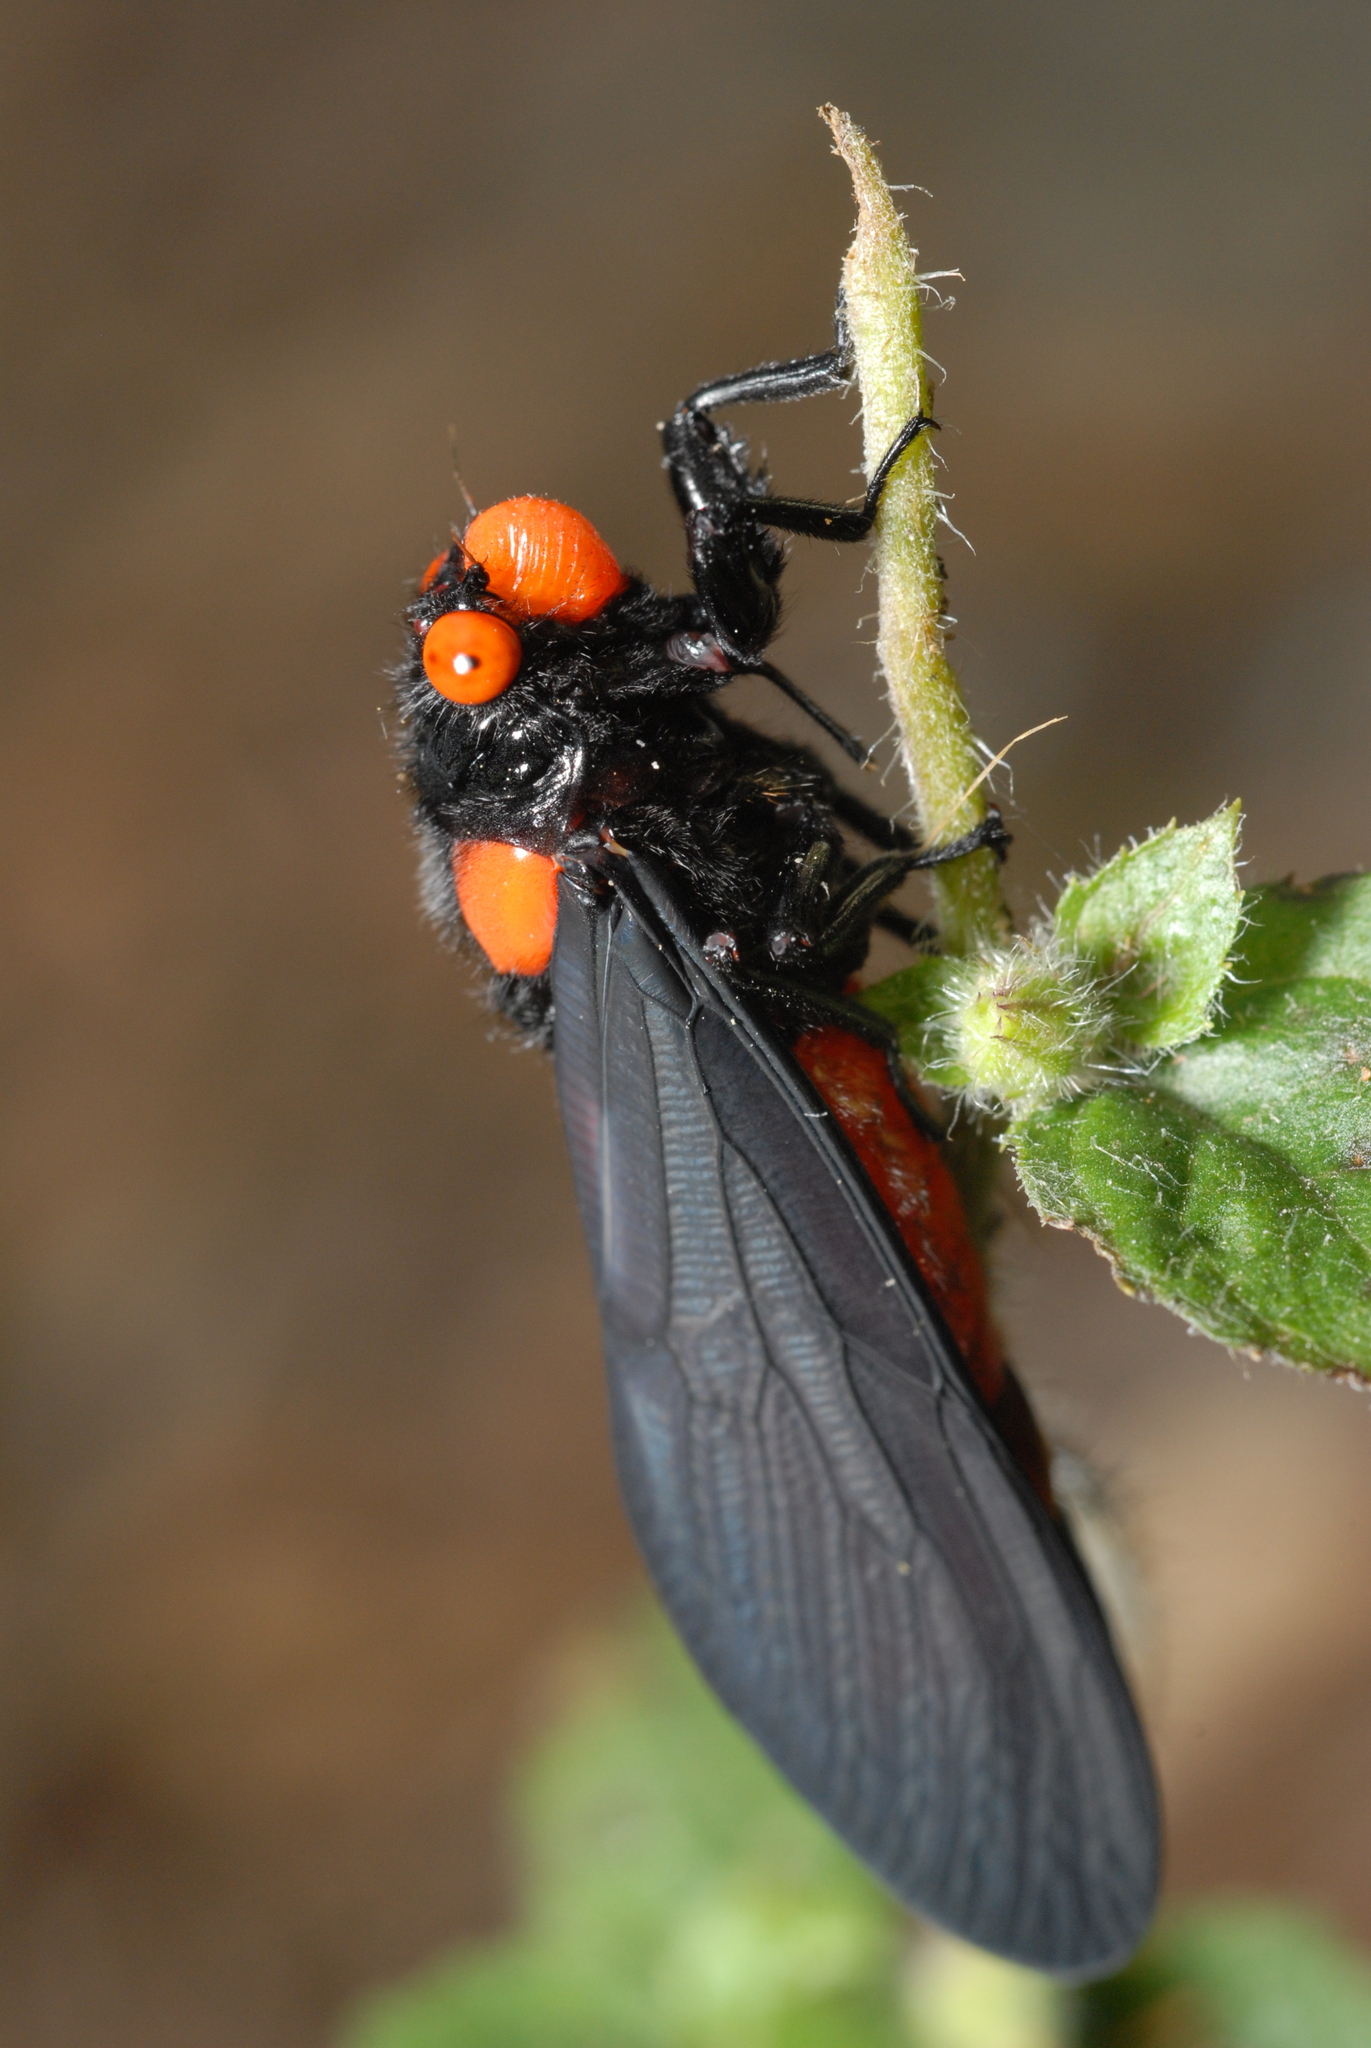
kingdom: Animalia
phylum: Arthropoda
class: Insecta
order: Hemiptera
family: Cicadidae
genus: Huechys
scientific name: Huechys sanguinea
